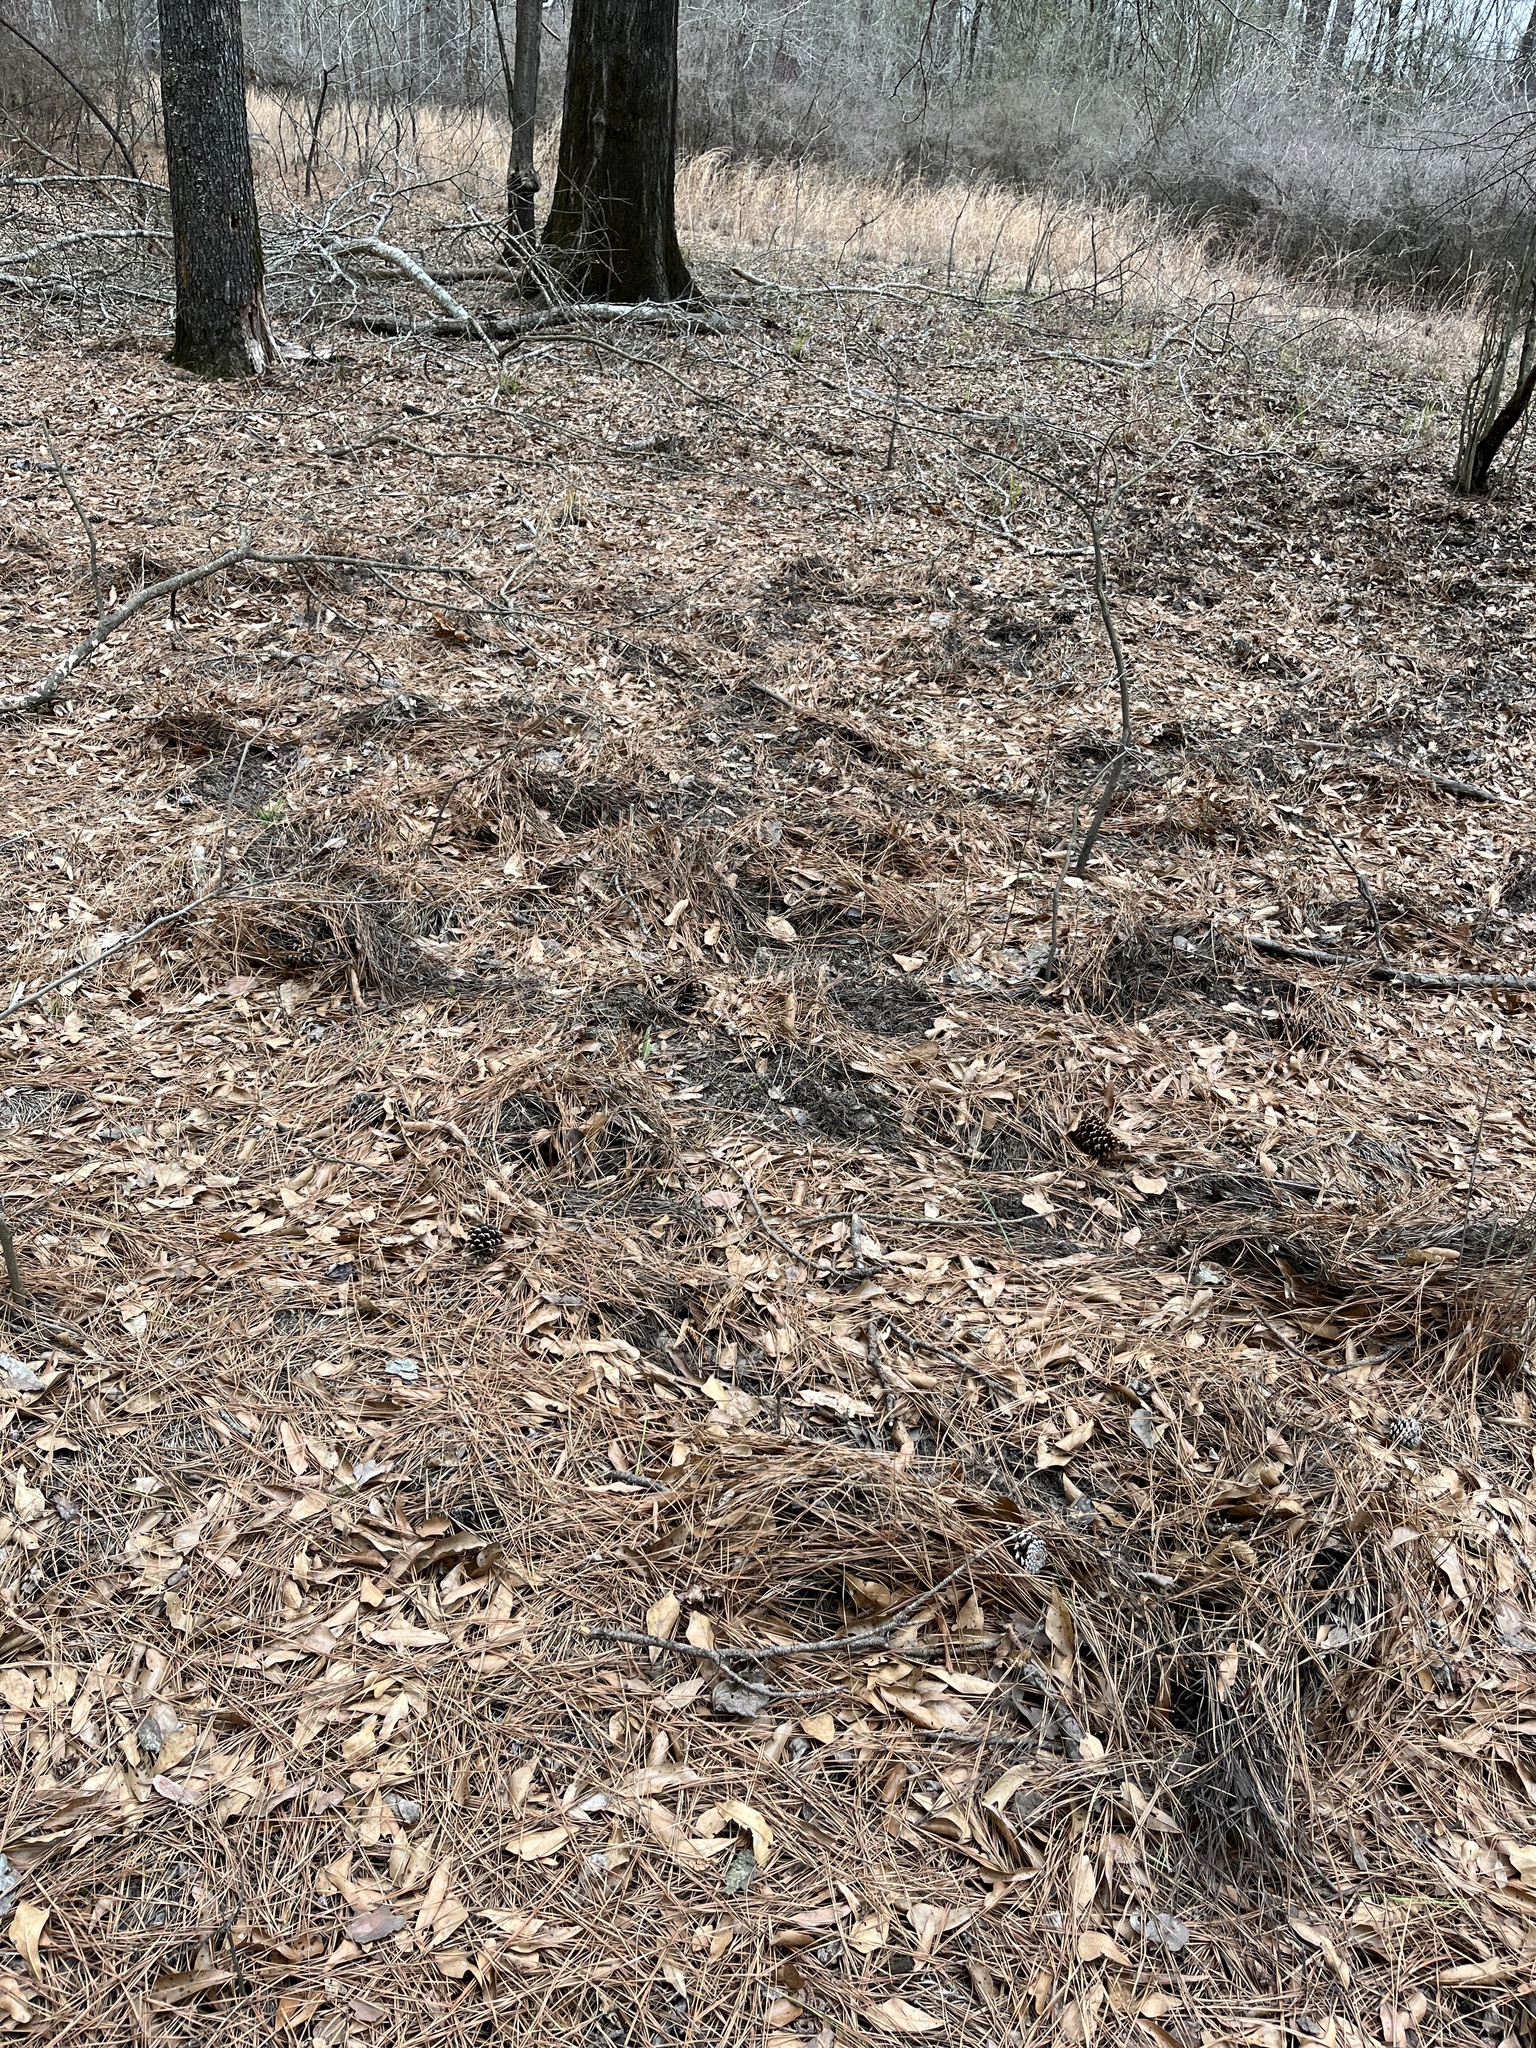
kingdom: Animalia
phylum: Chordata
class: Mammalia
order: Artiodactyla
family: Suidae
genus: Sus
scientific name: Sus scrofa
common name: Wild boar
